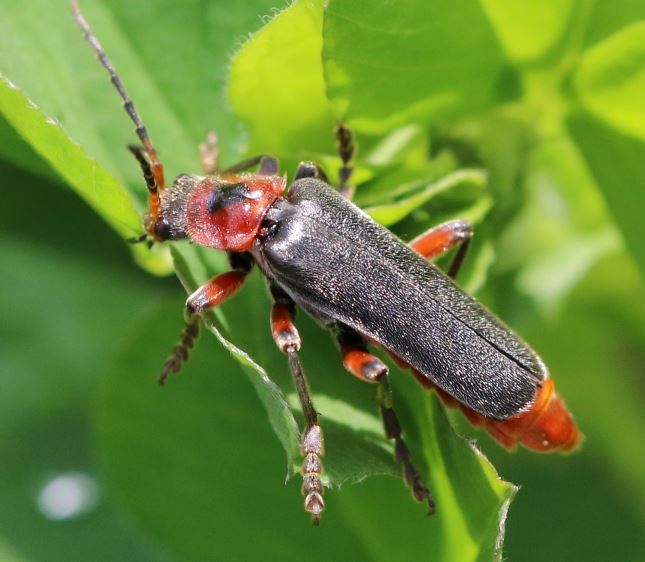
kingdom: Animalia
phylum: Arthropoda
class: Insecta
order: Coleoptera
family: Cantharidae
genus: Cantharis
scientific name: Cantharis rustica
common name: Soldier beetle
